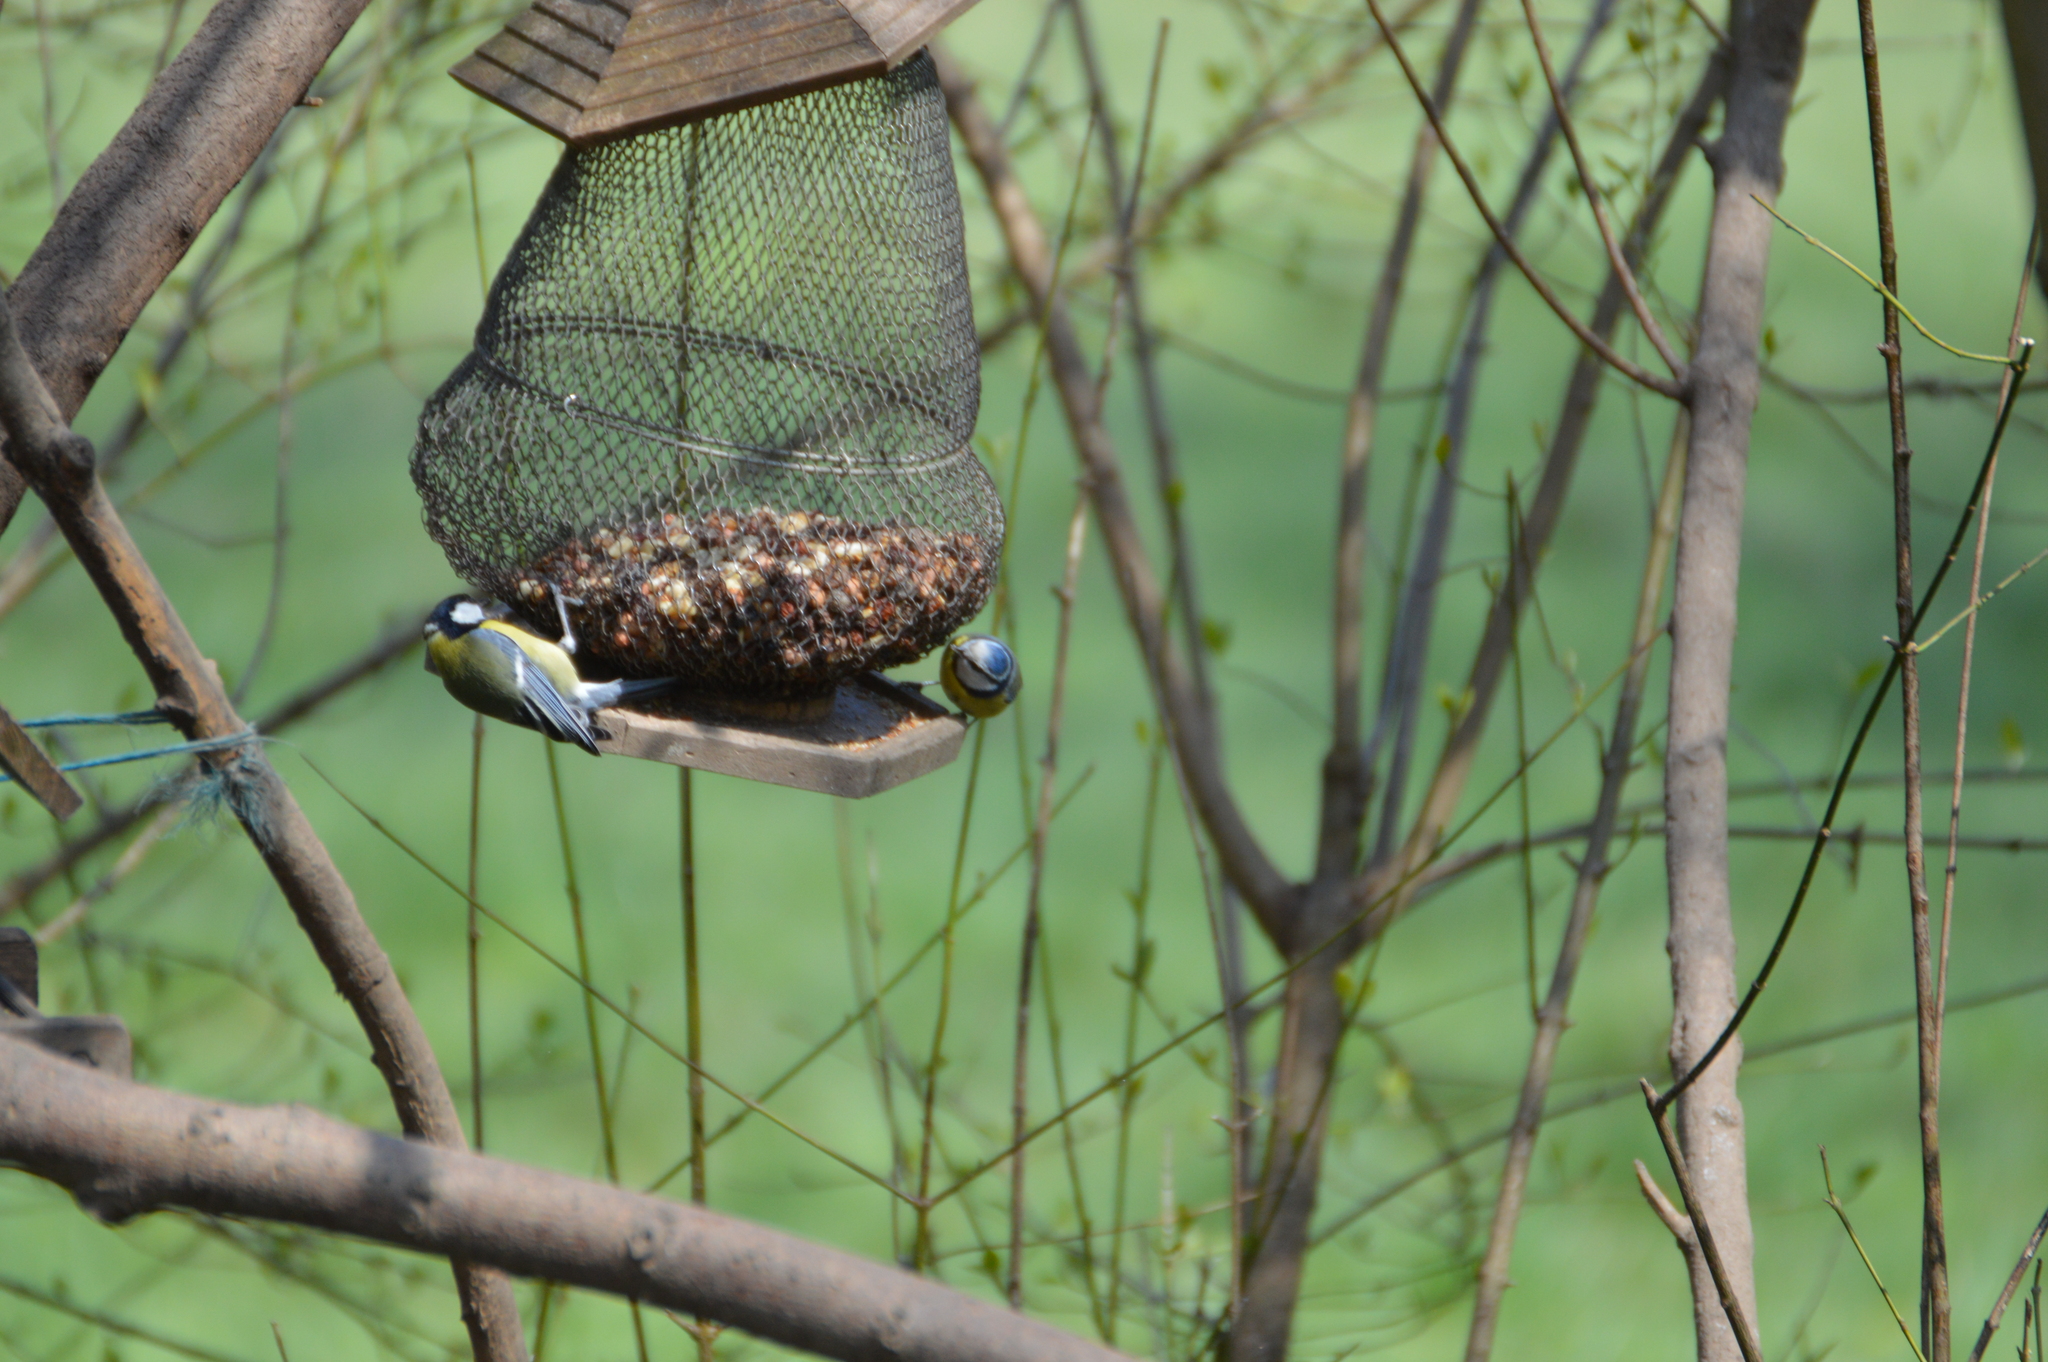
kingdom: Animalia
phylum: Chordata
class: Aves
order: Passeriformes
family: Paridae
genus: Parus
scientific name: Parus major
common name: Great tit
